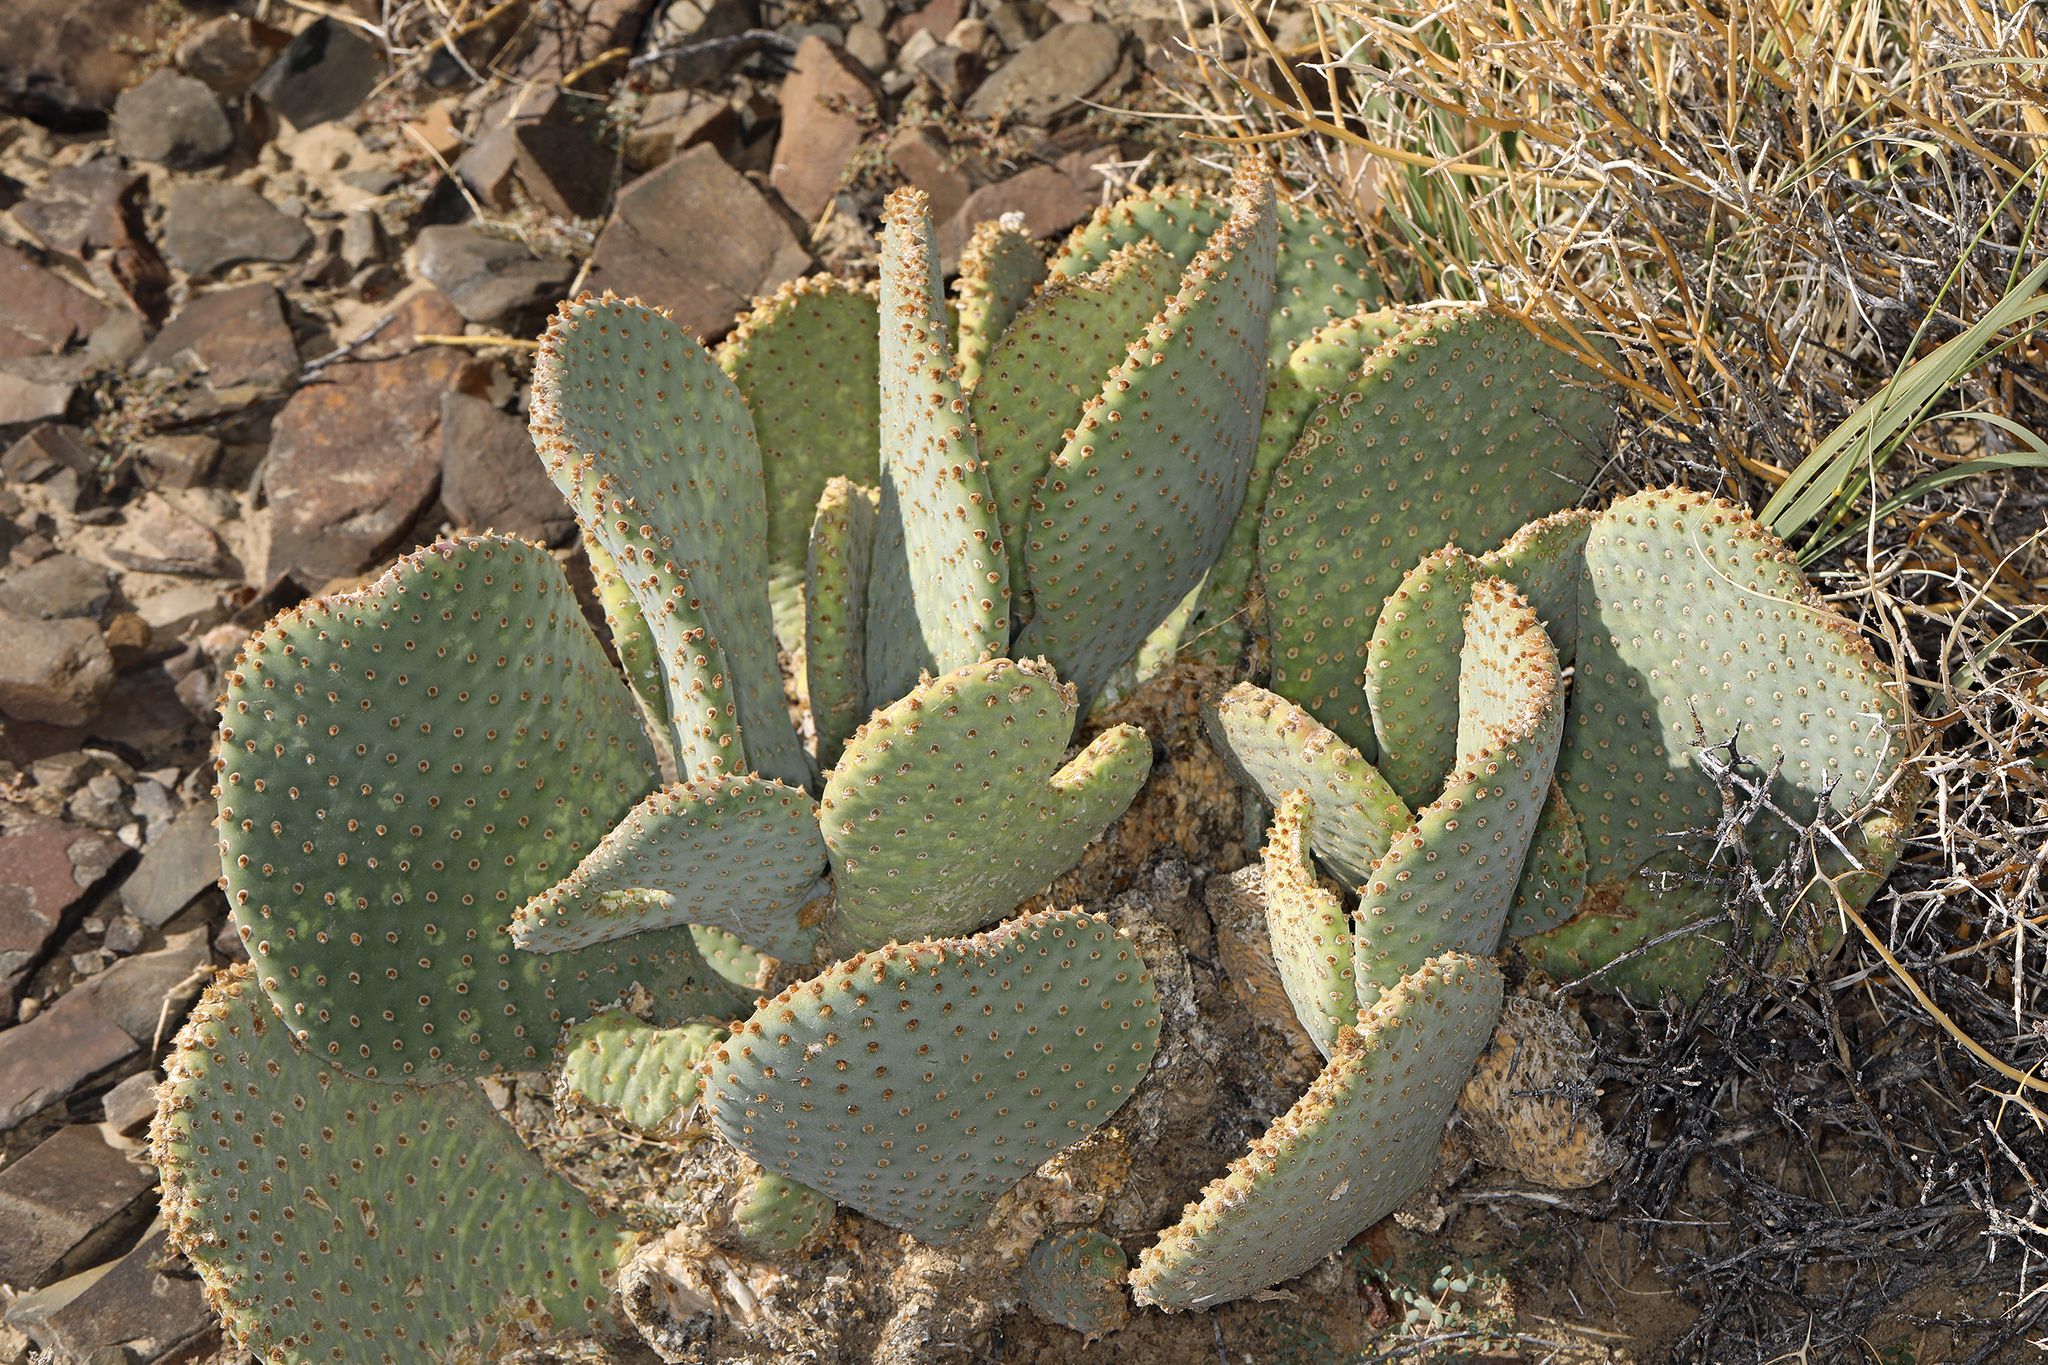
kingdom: Plantae
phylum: Tracheophyta
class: Magnoliopsida
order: Caryophyllales
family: Cactaceae
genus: Opuntia
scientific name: Opuntia basilaris
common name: Beavertail prickly-pear
